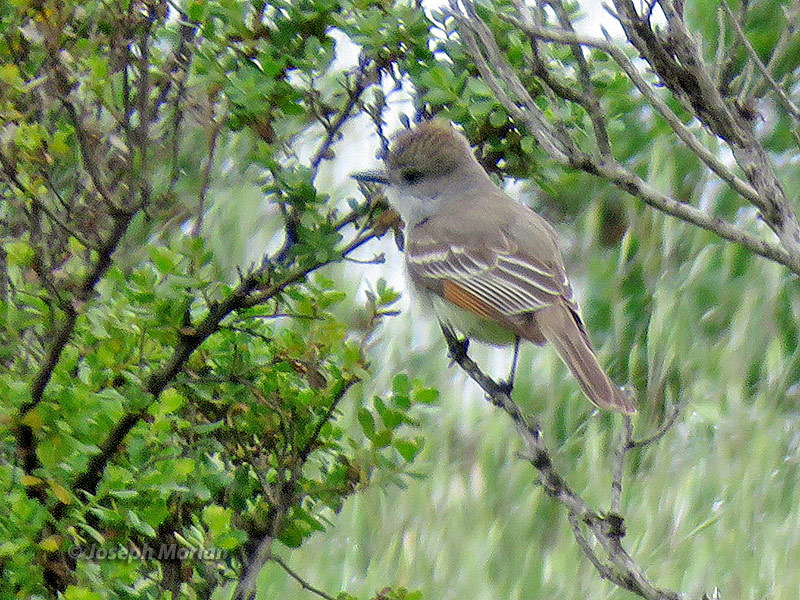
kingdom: Animalia
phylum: Chordata
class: Aves
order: Passeriformes
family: Tyrannidae
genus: Myiarchus
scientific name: Myiarchus cinerascens
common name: Ash-throated flycatcher
